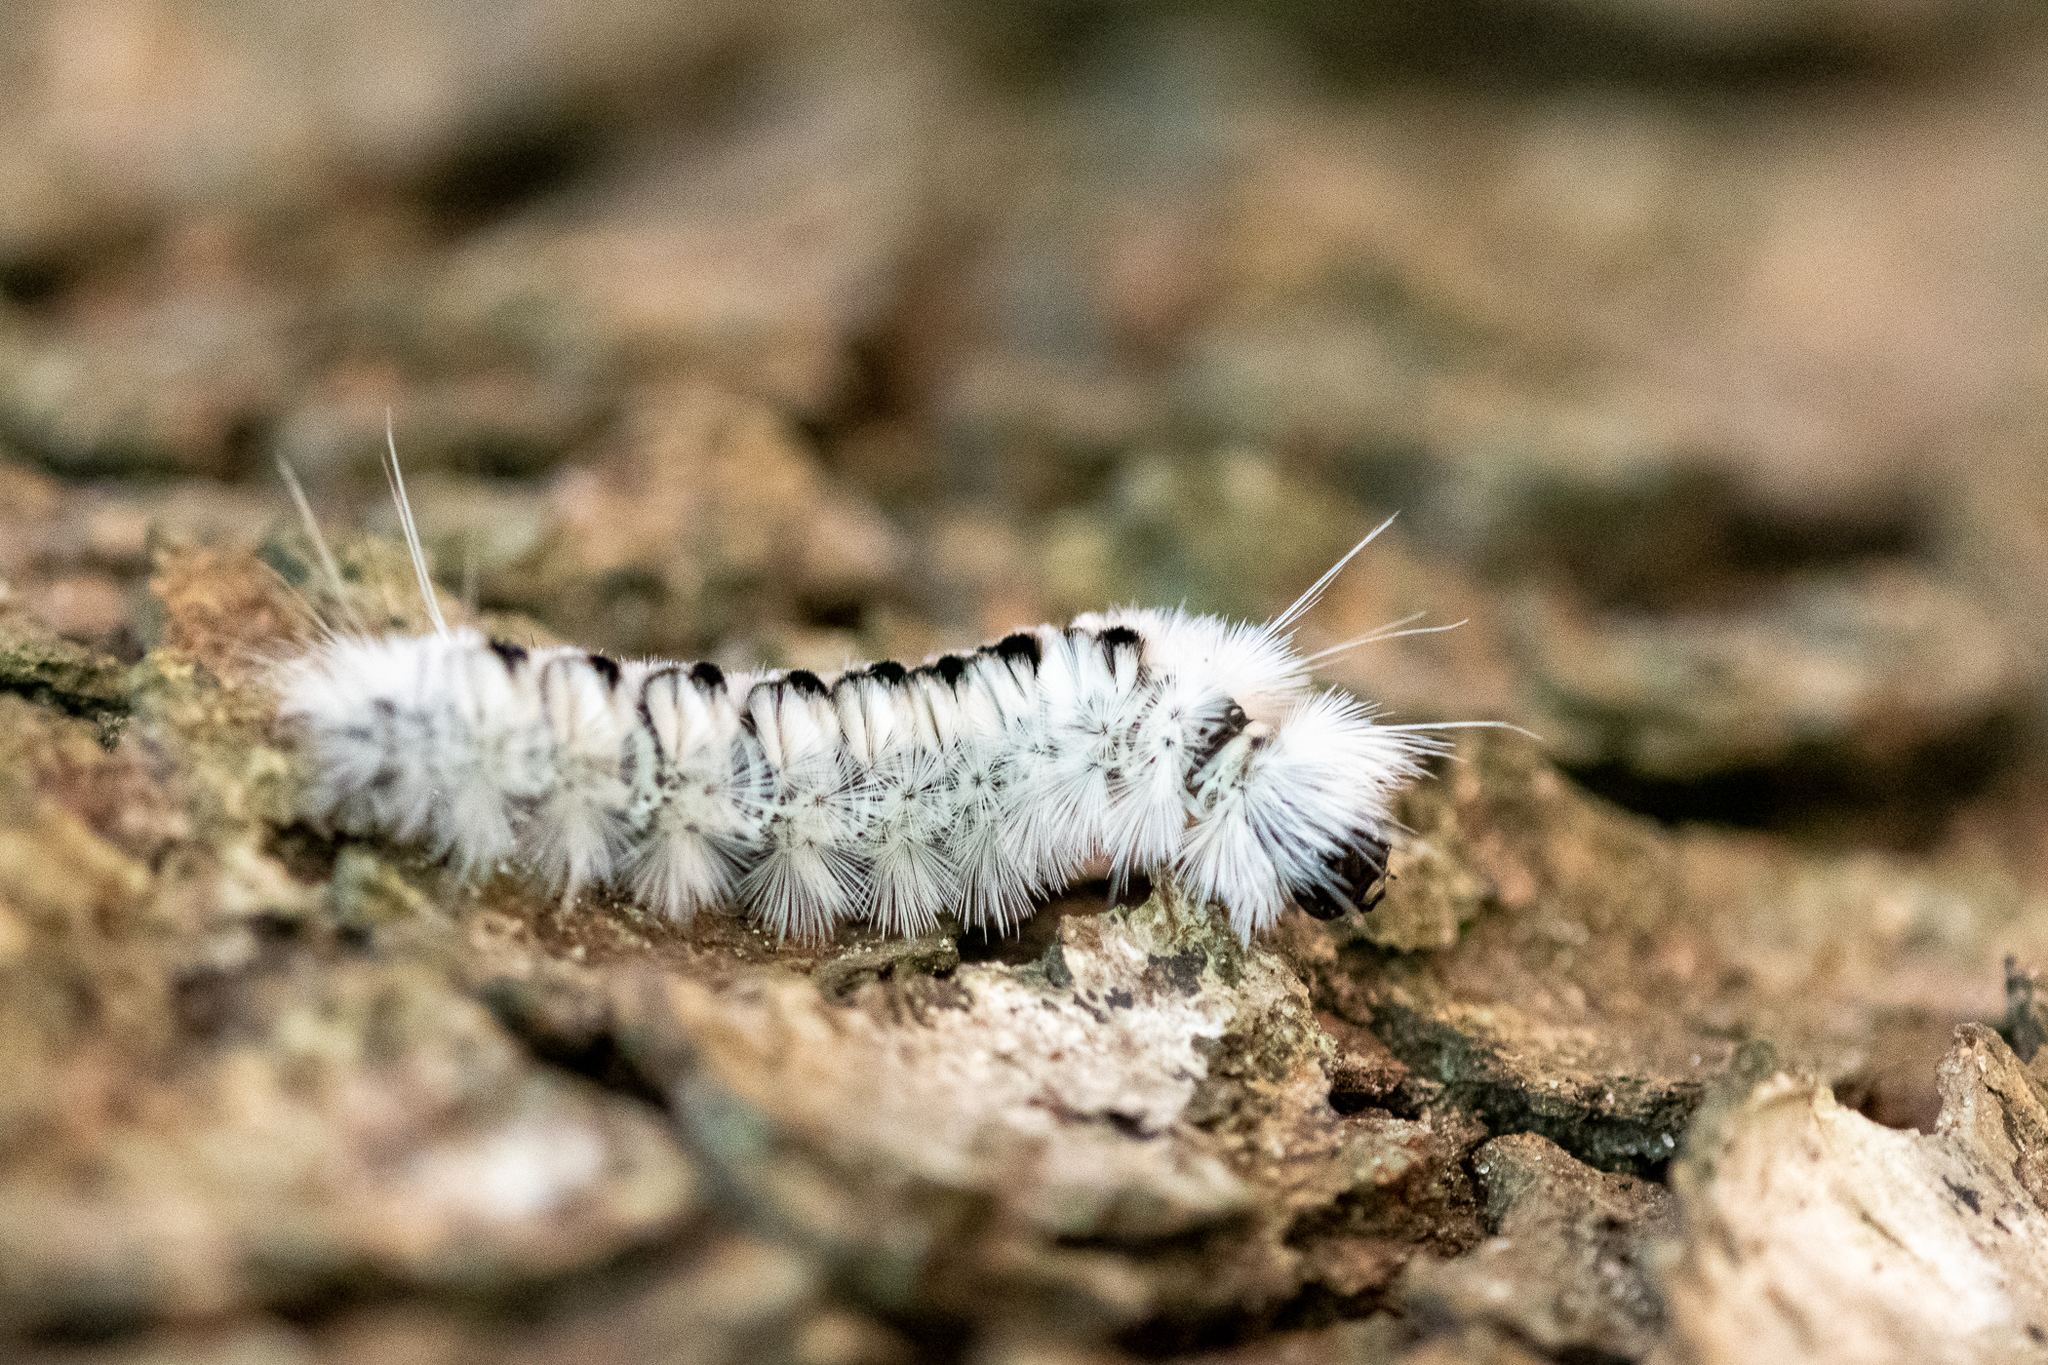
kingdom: Animalia
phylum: Arthropoda
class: Insecta
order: Lepidoptera
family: Erebidae
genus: Lophocampa
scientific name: Lophocampa caryae
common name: Hickory tussock moth
